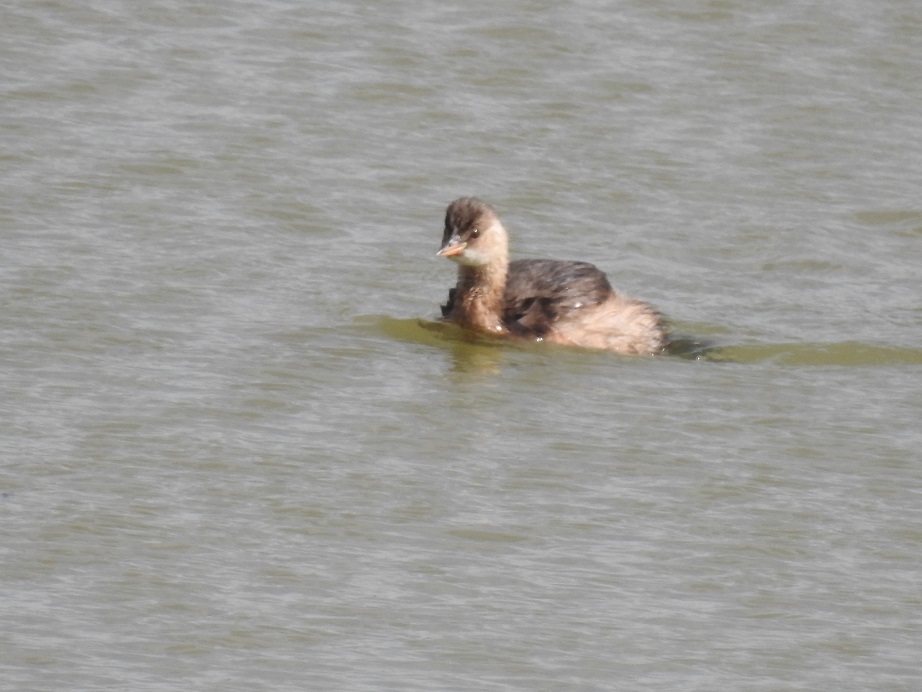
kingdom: Animalia
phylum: Chordata
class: Aves
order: Podicipediformes
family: Podicipedidae
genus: Tachybaptus
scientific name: Tachybaptus ruficollis
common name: Little grebe
